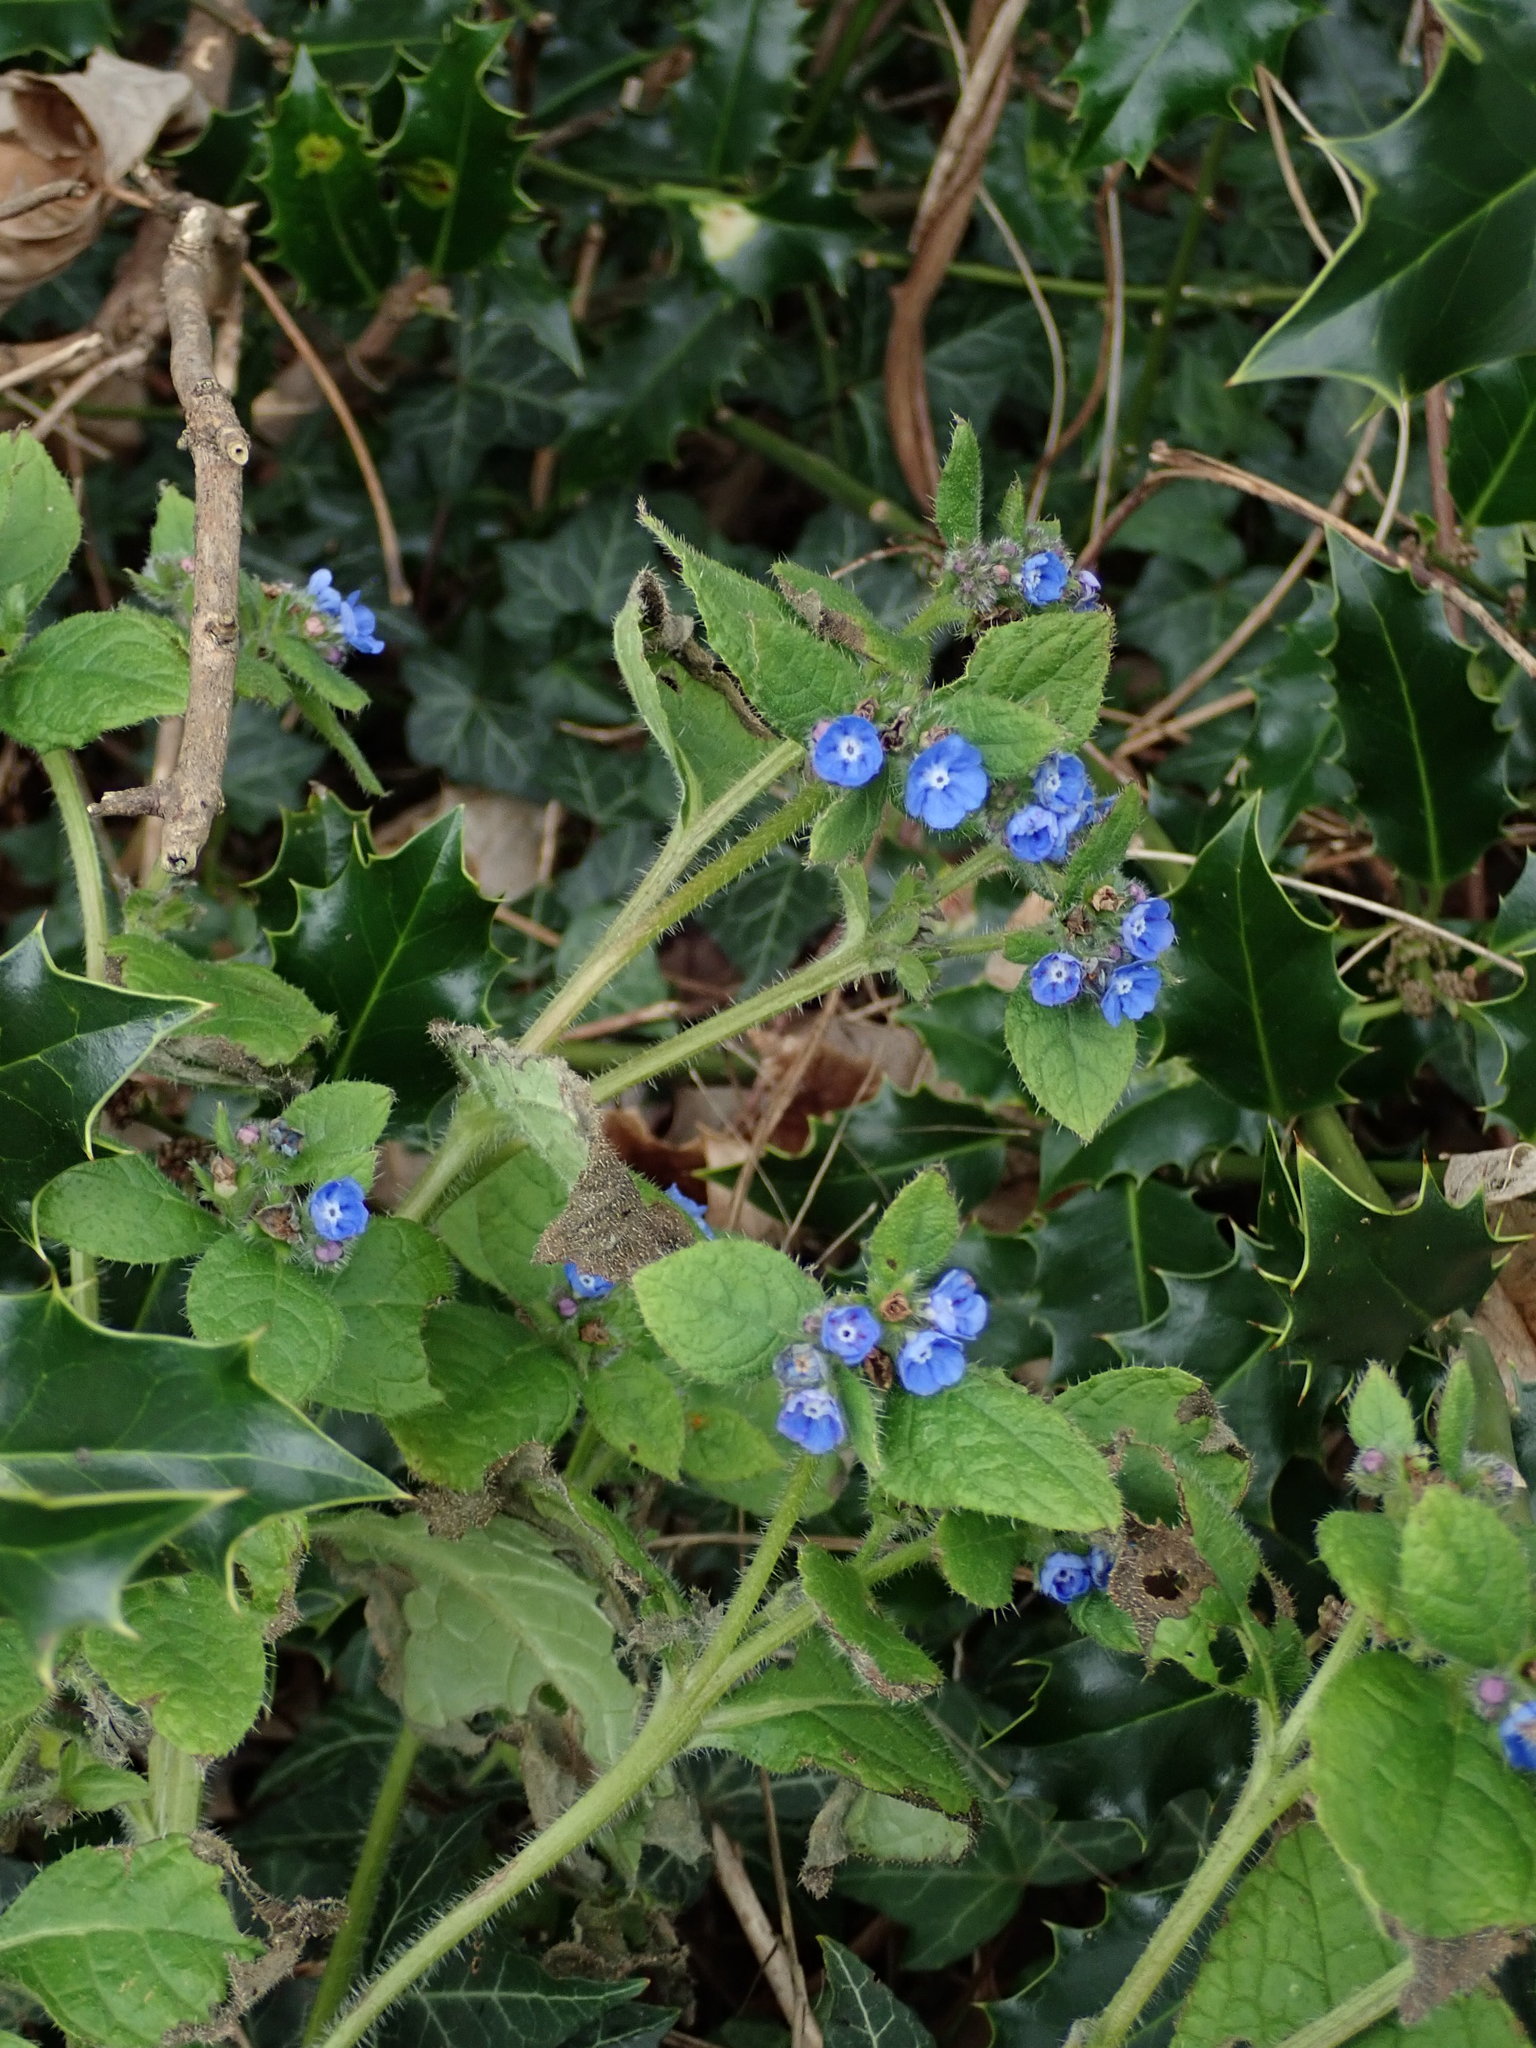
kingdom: Plantae
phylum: Tracheophyta
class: Magnoliopsida
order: Boraginales
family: Boraginaceae
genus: Pentaglottis
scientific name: Pentaglottis sempervirens
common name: Green alkanet
